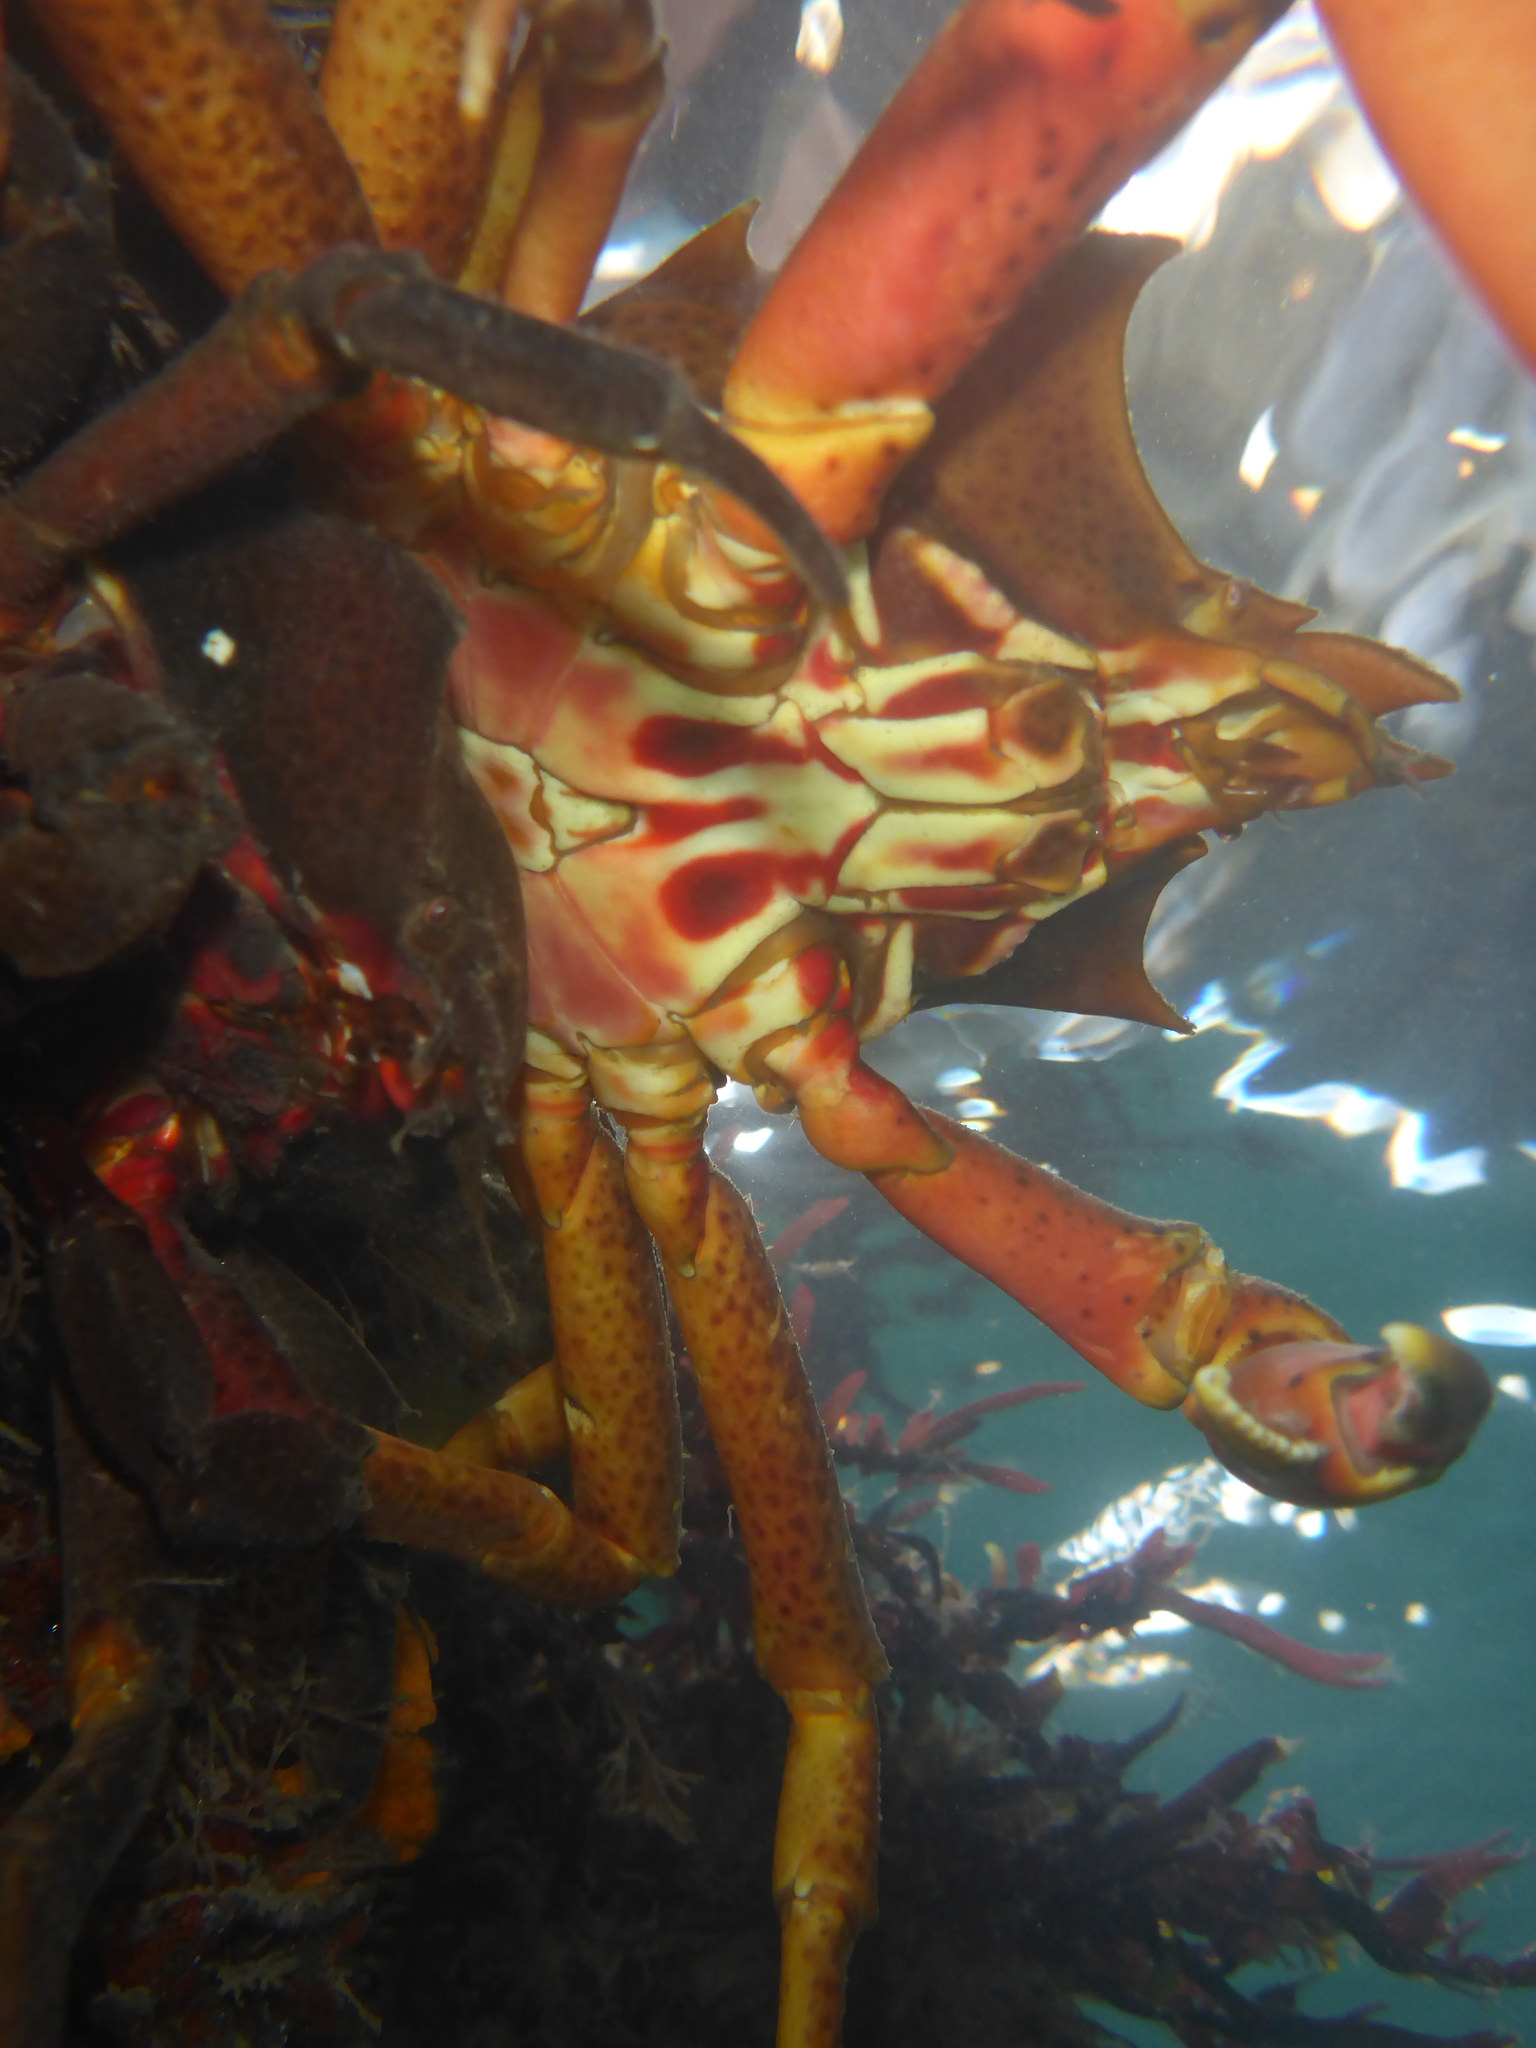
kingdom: Animalia
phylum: Arthropoda
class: Malacostraca
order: Decapoda
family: Epialtidae
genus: Pugettia
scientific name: Pugettia producta
